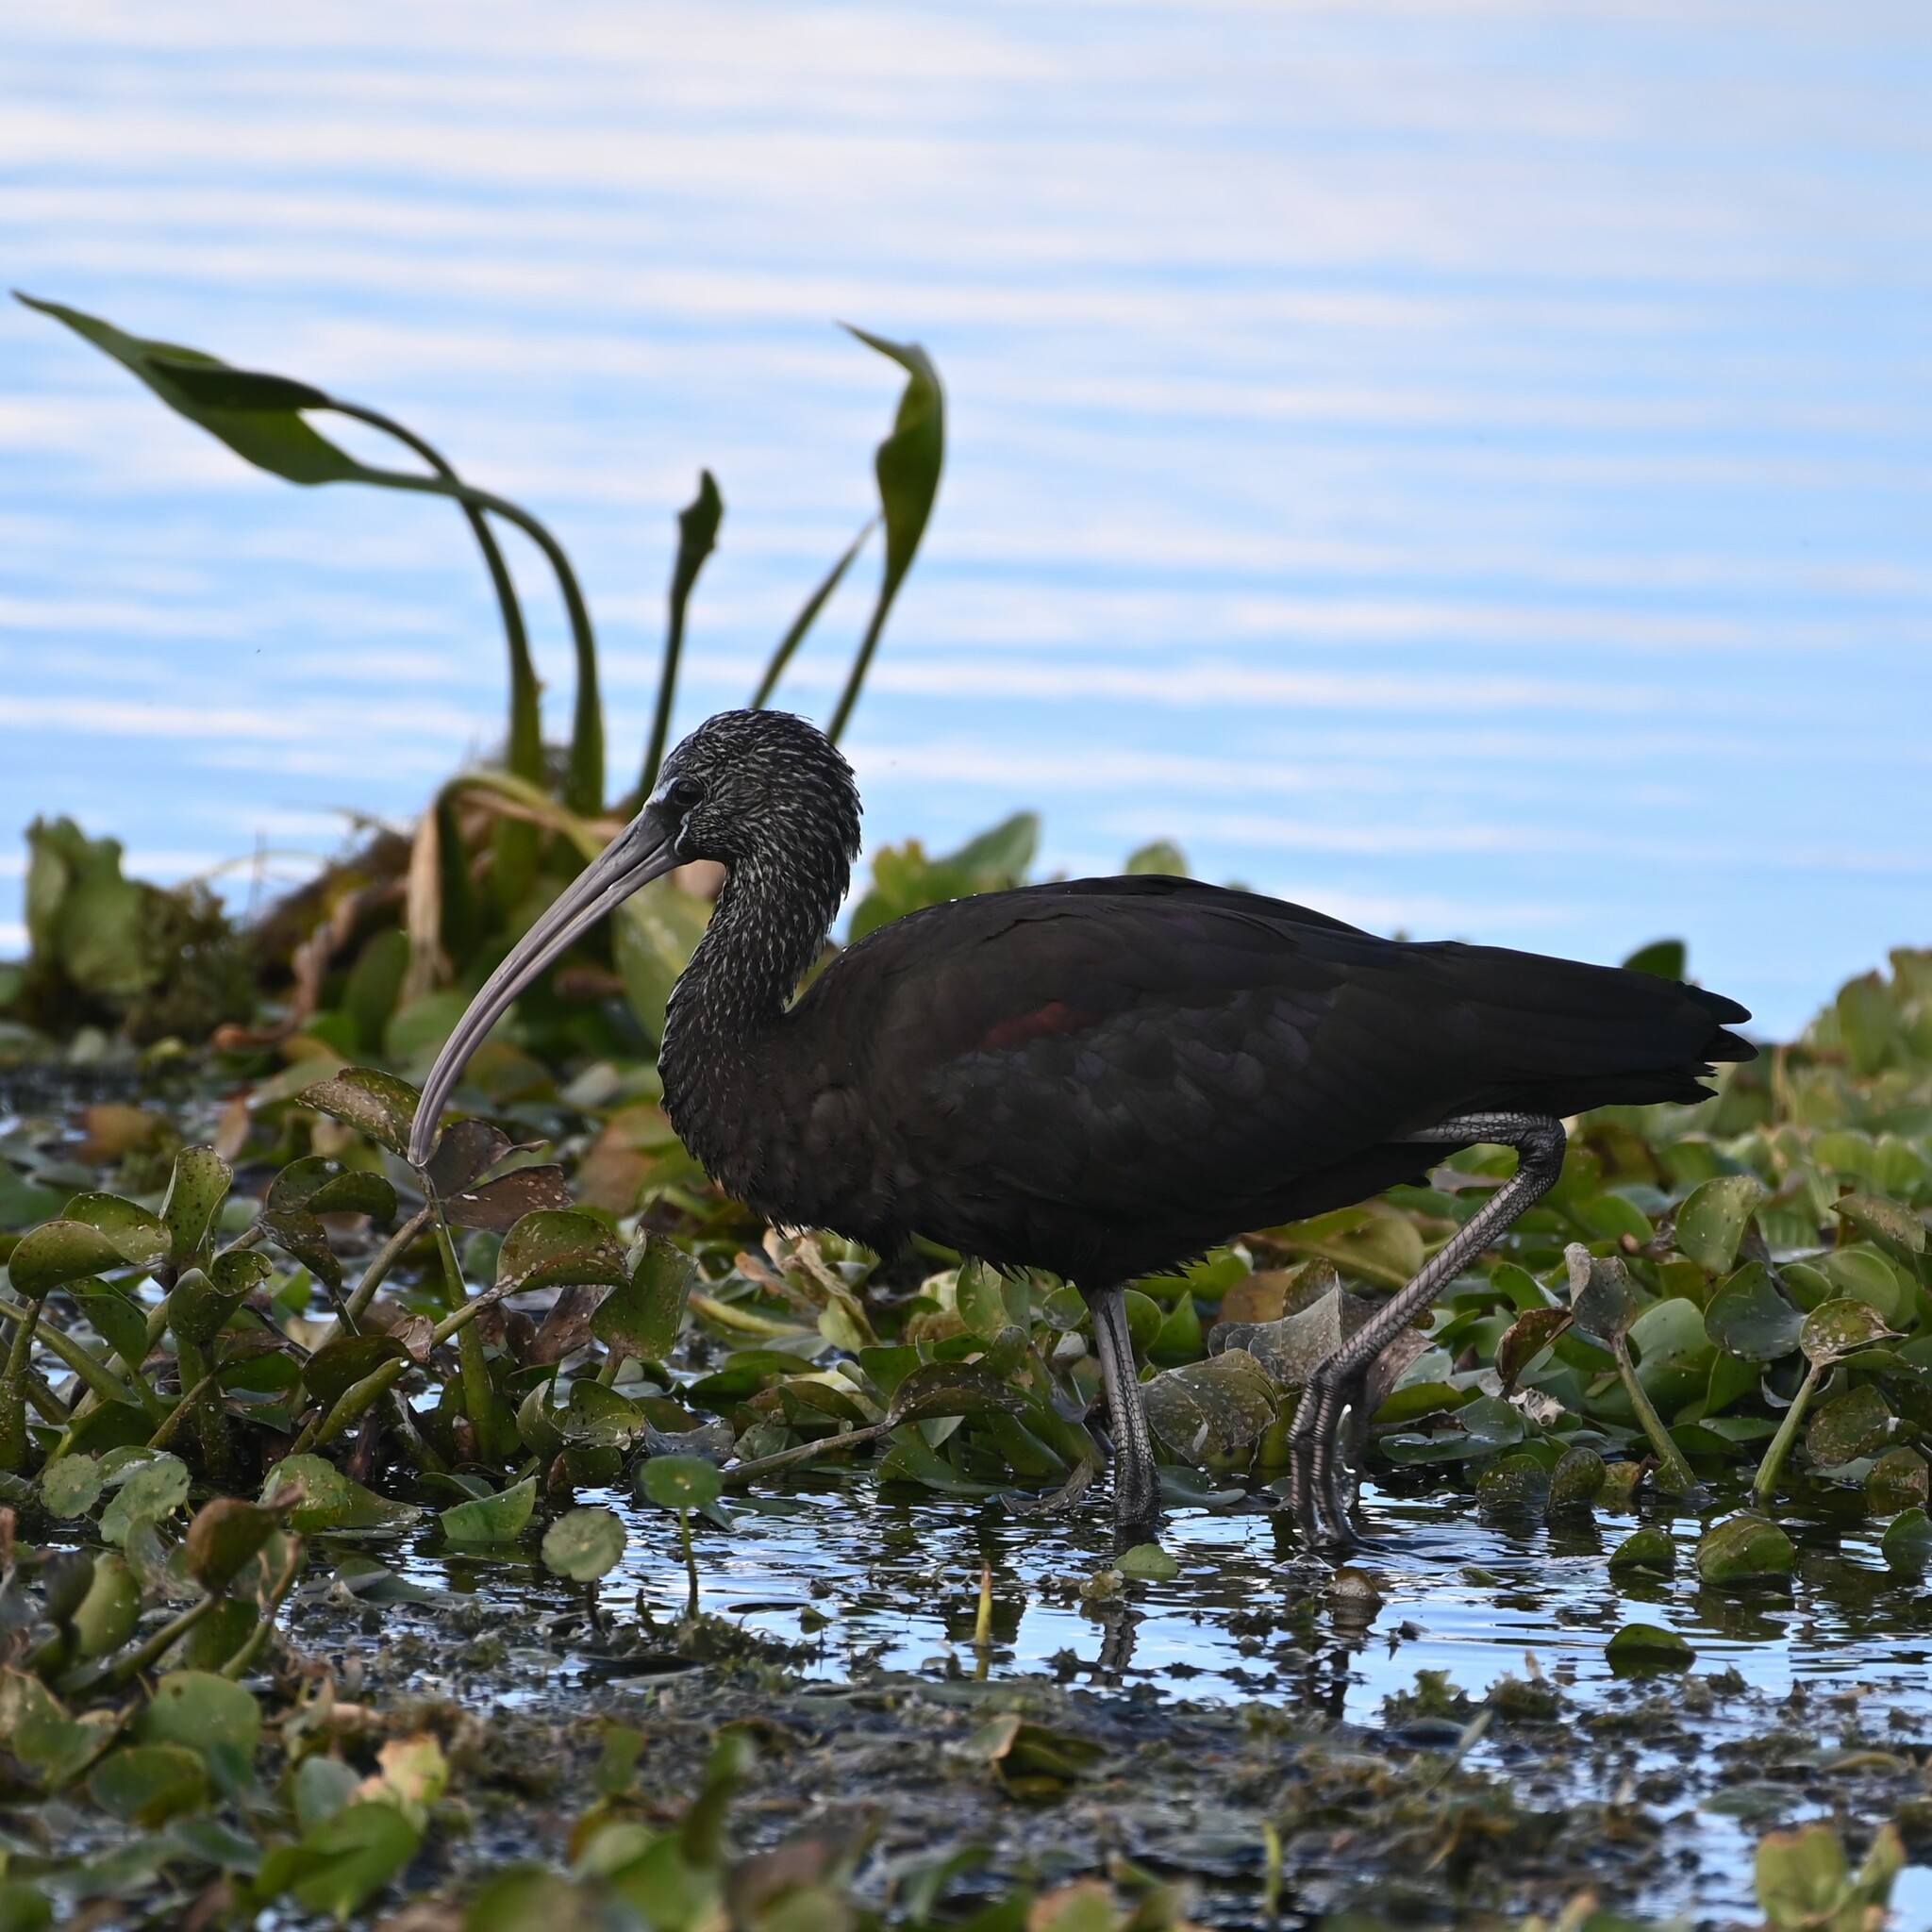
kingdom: Animalia
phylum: Chordata
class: Aves
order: Pelecaniformes
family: Threskiornithidae
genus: Plegadis
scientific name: Plegadis falcinellus
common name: Glossy ibis
